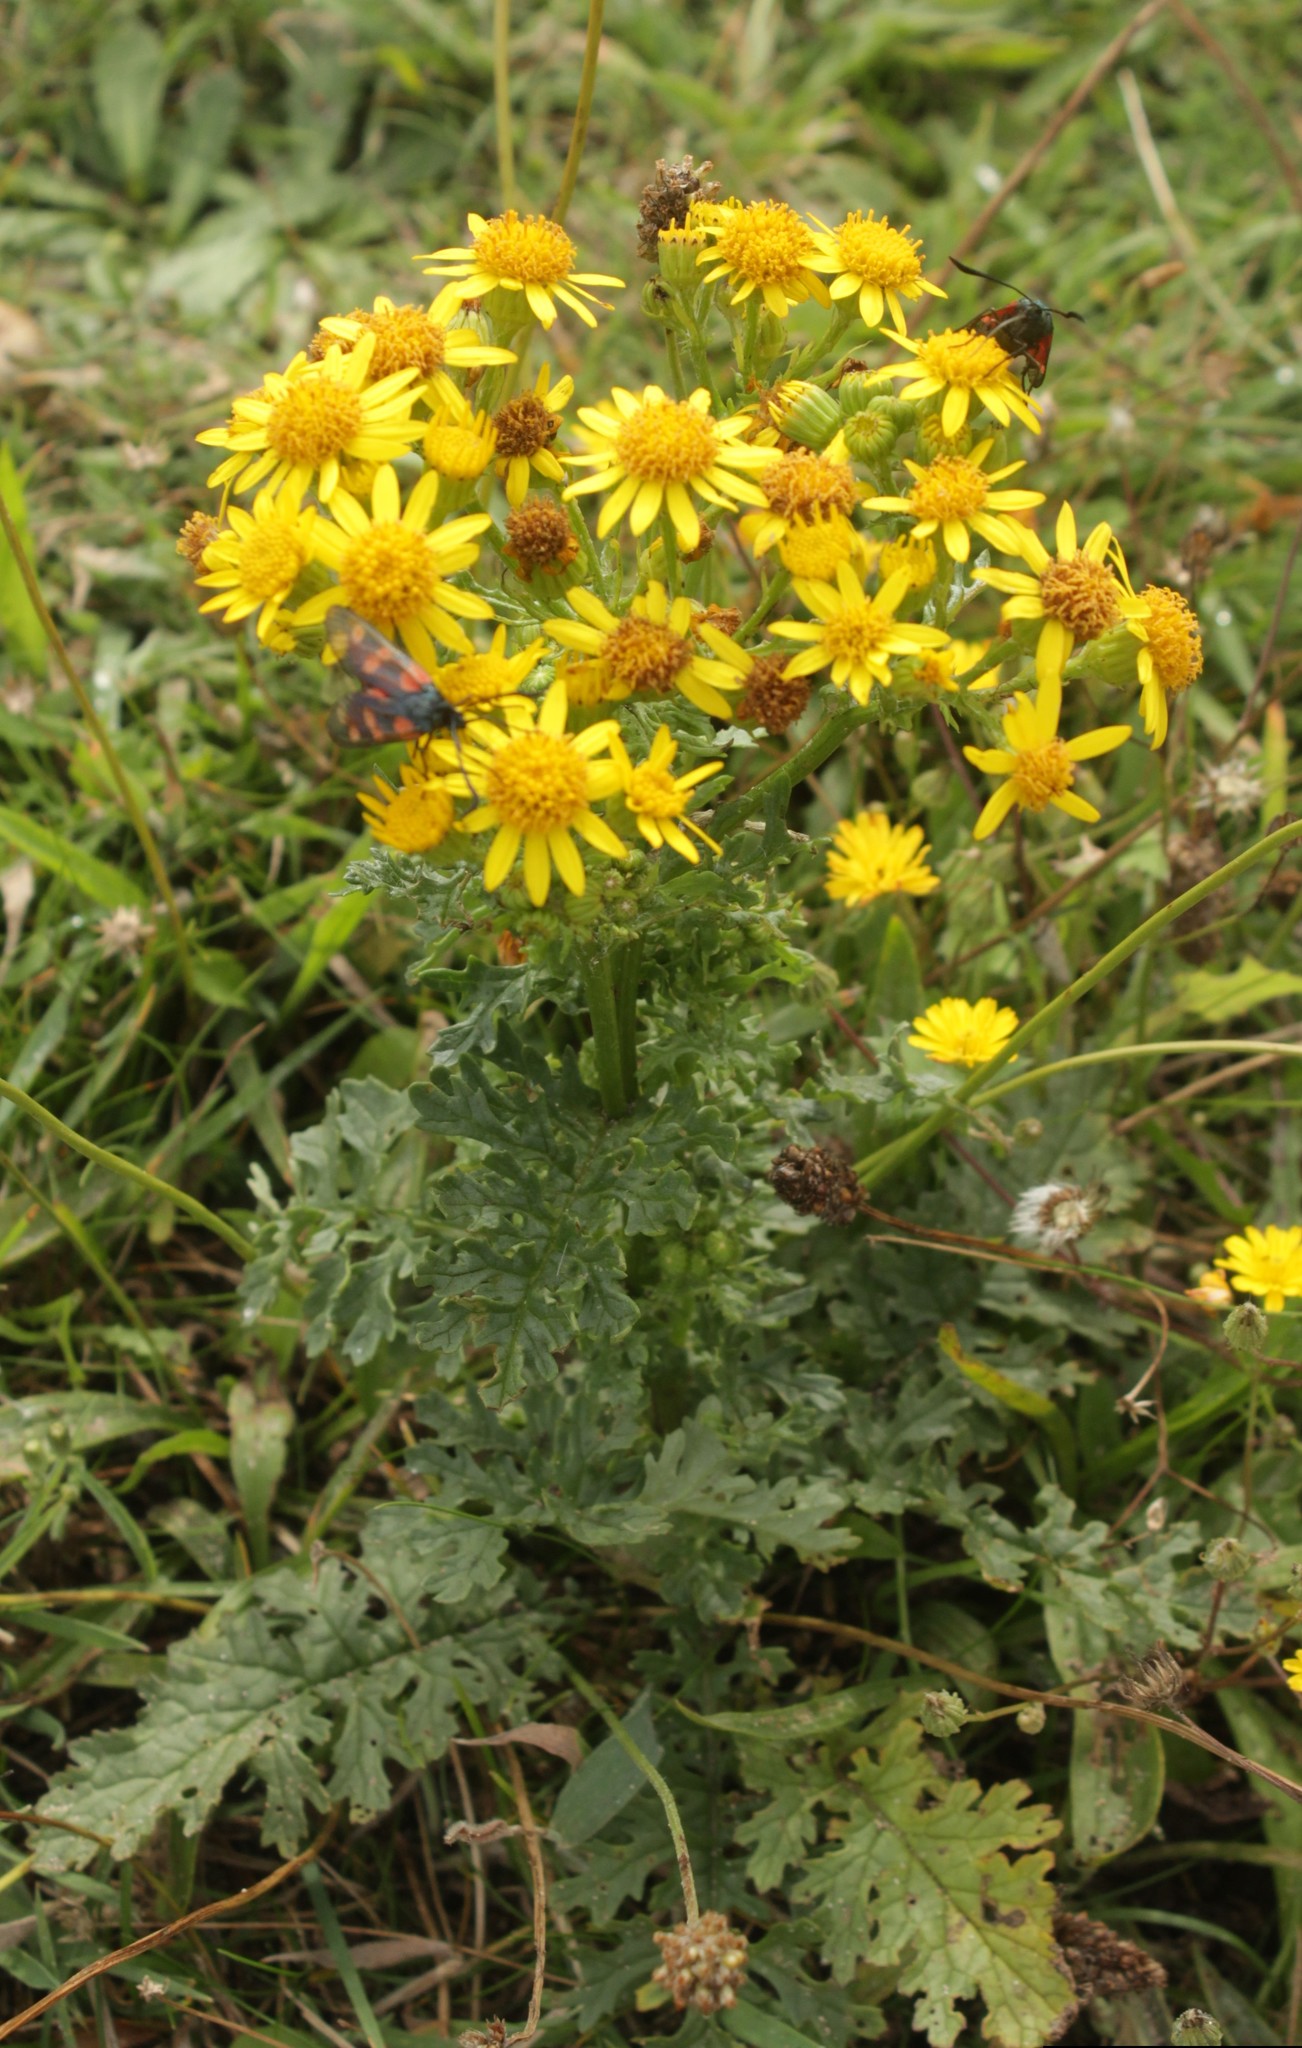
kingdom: Plantae
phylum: Tracheophyta
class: Magnoliopsida
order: Asterales
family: Asteraceae
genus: Jacobaea
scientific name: Jacobaea vulgaris
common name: Stinking willie
